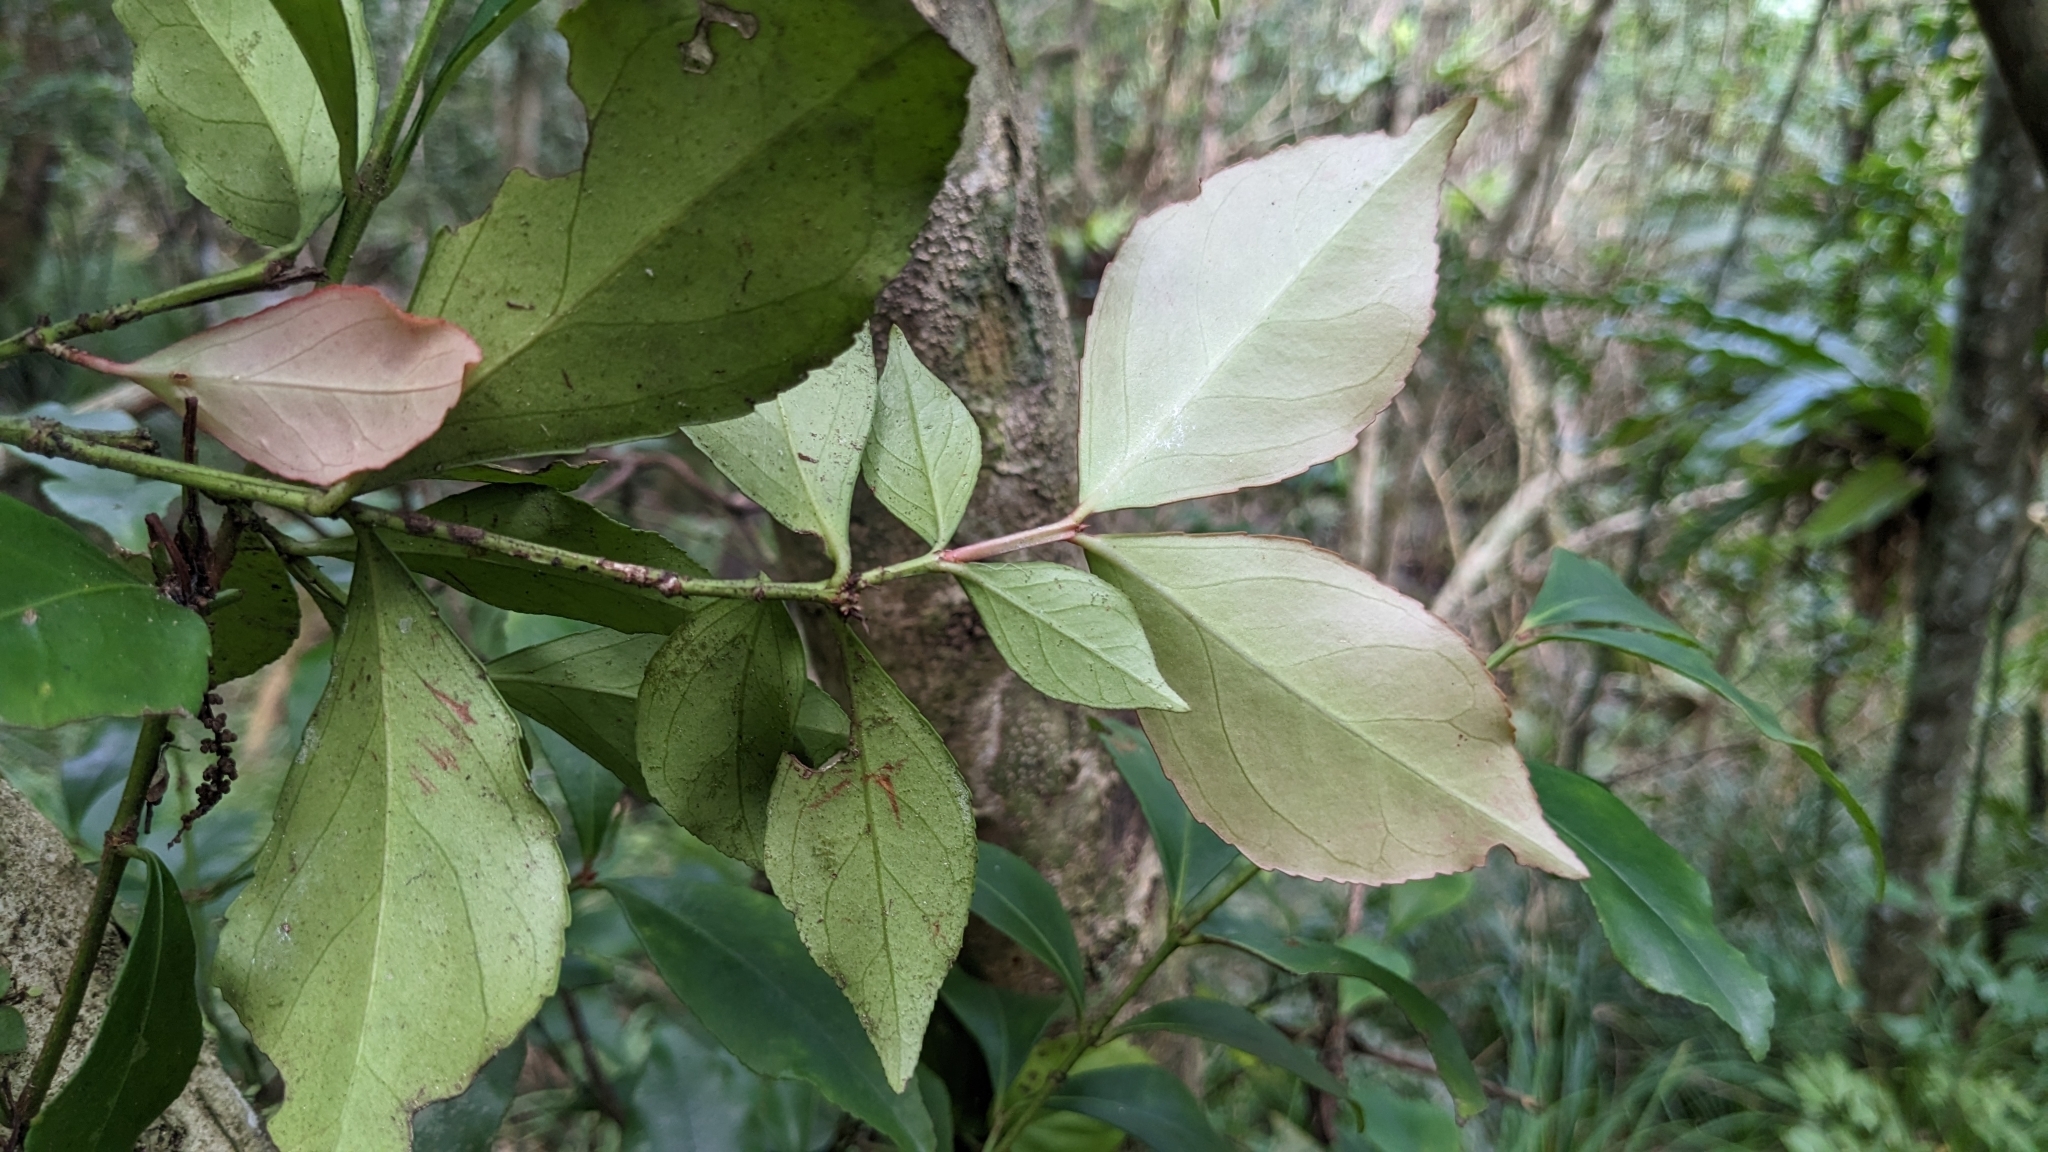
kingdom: Plantae
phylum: Tracheophyta
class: Magnoliopsida
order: Celastrales
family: Celastraceae
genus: Euonymus
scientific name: Euonymus tashiroi
